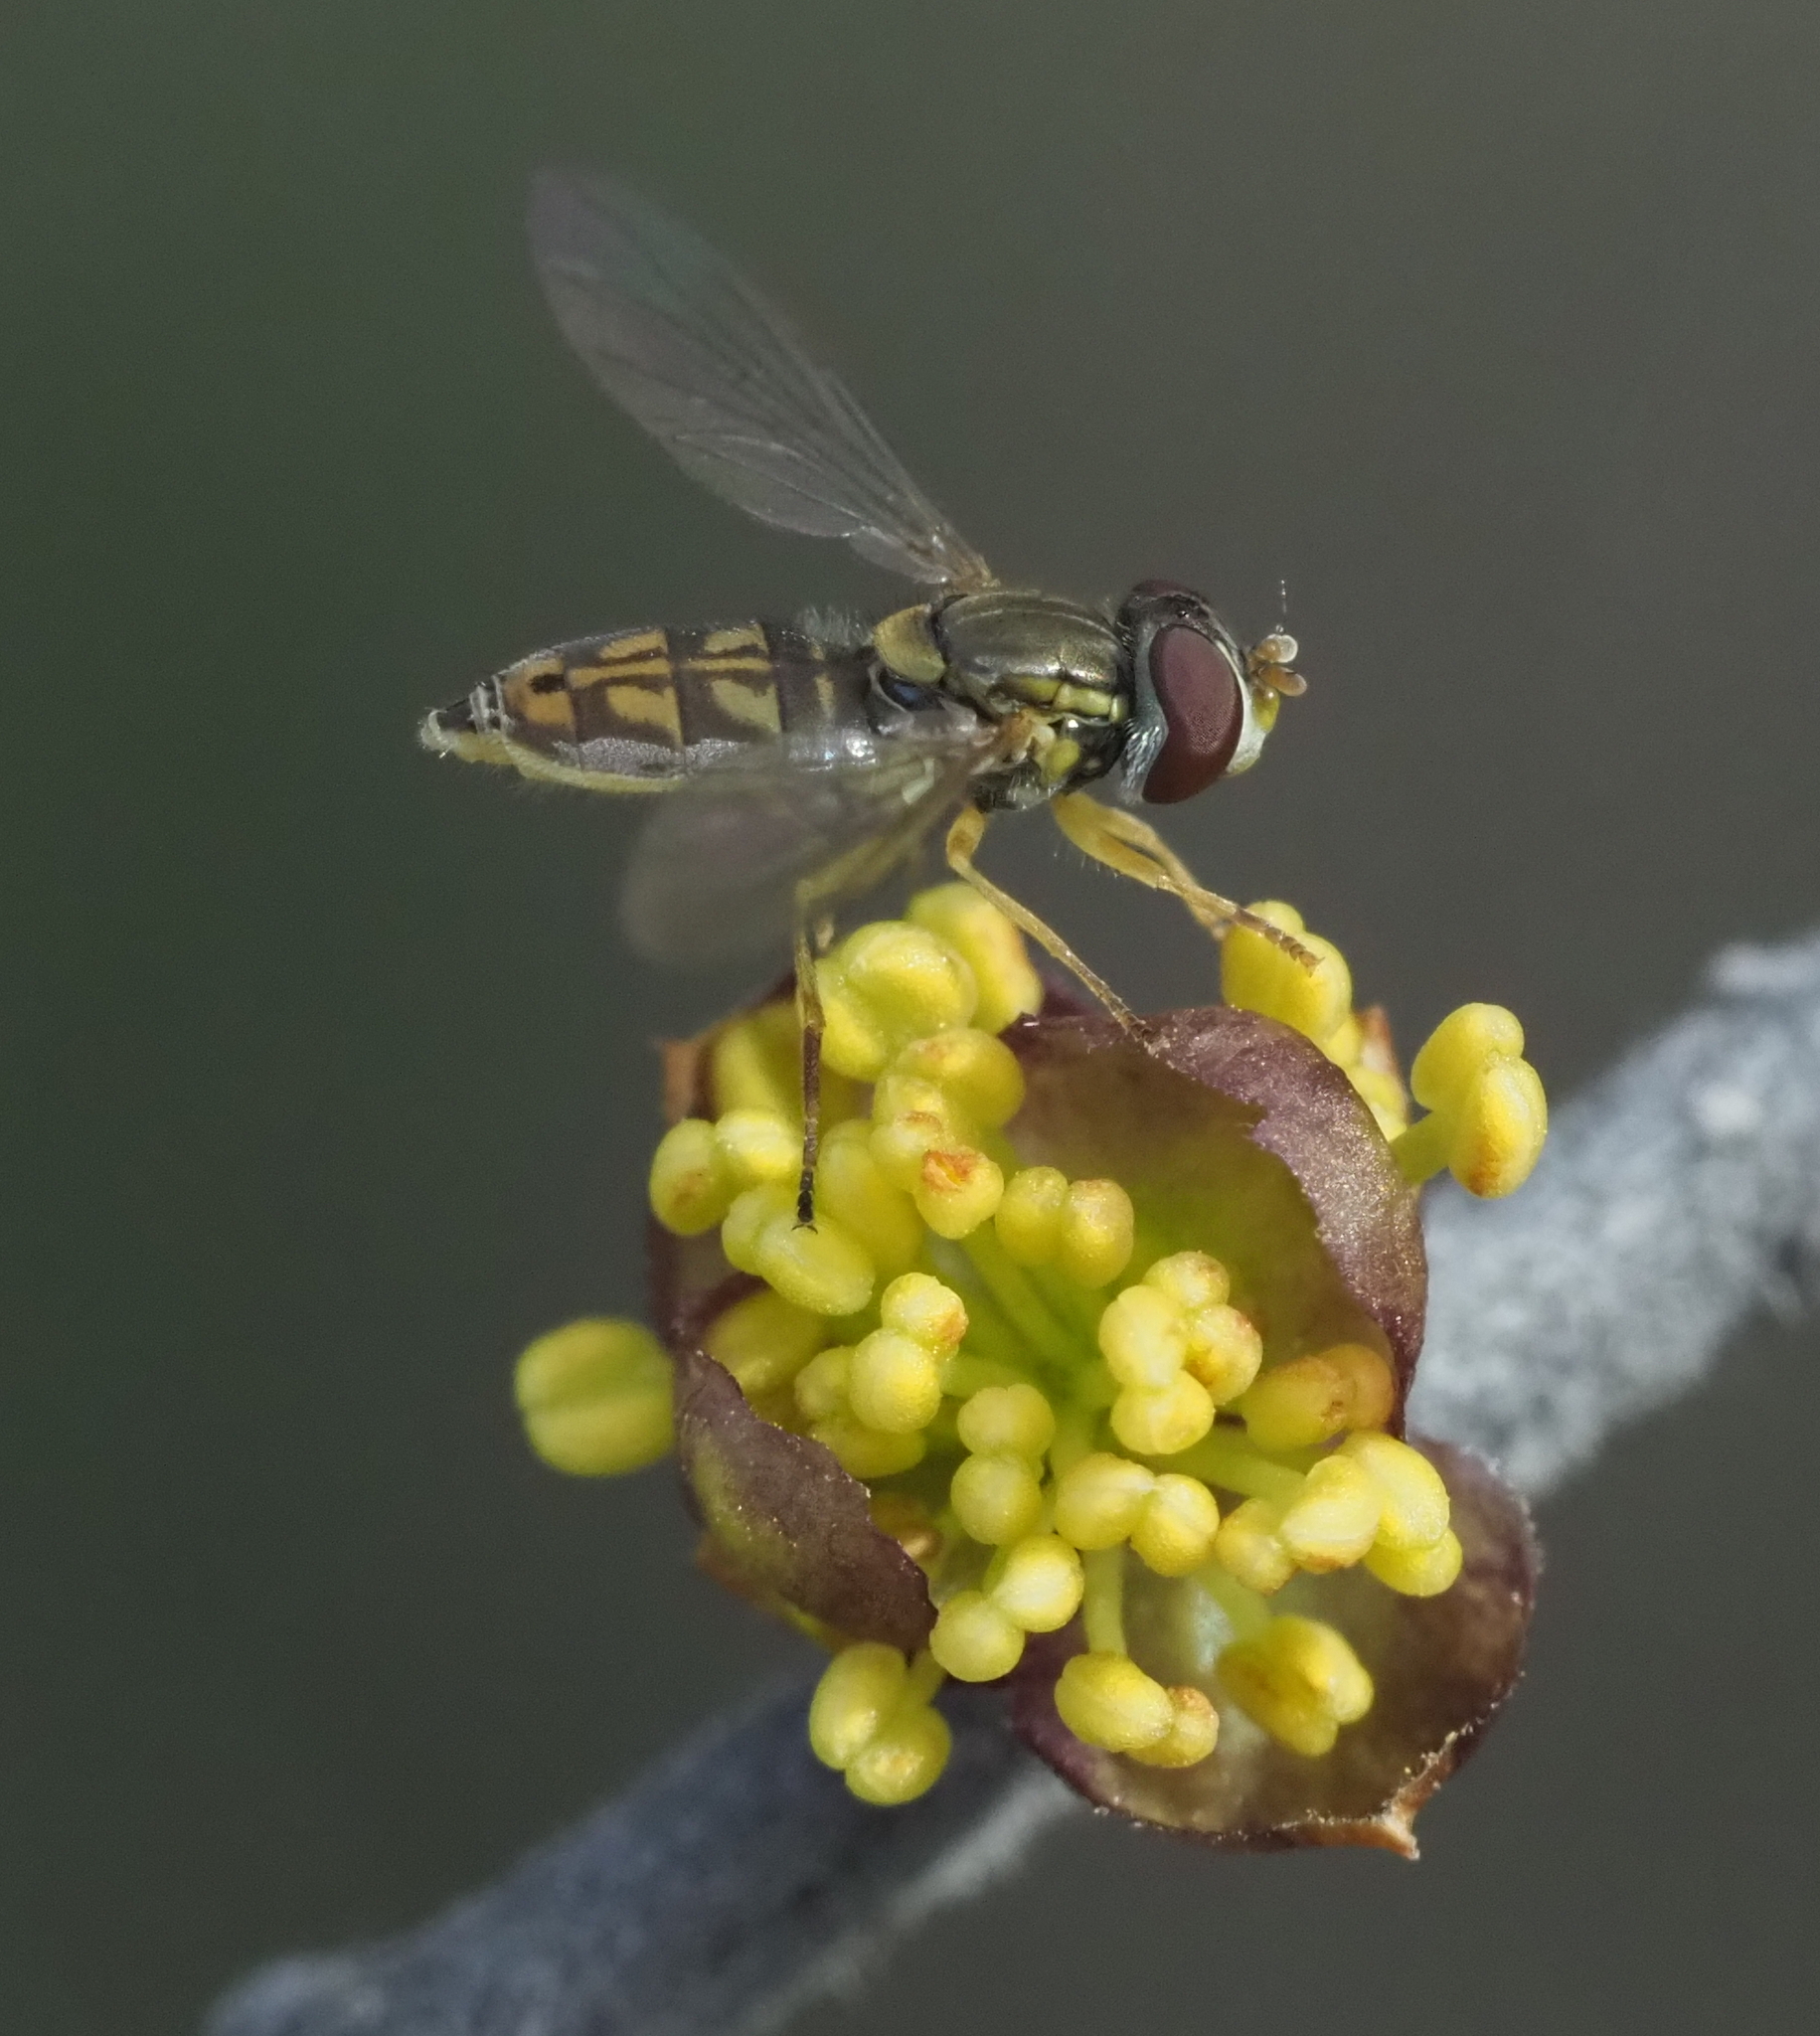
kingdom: Animalia
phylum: Arthropoda
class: Insecta
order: Diptera
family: Syrphidae
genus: Toxomerus
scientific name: Toxomerus marginatus
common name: Syrphid fly
